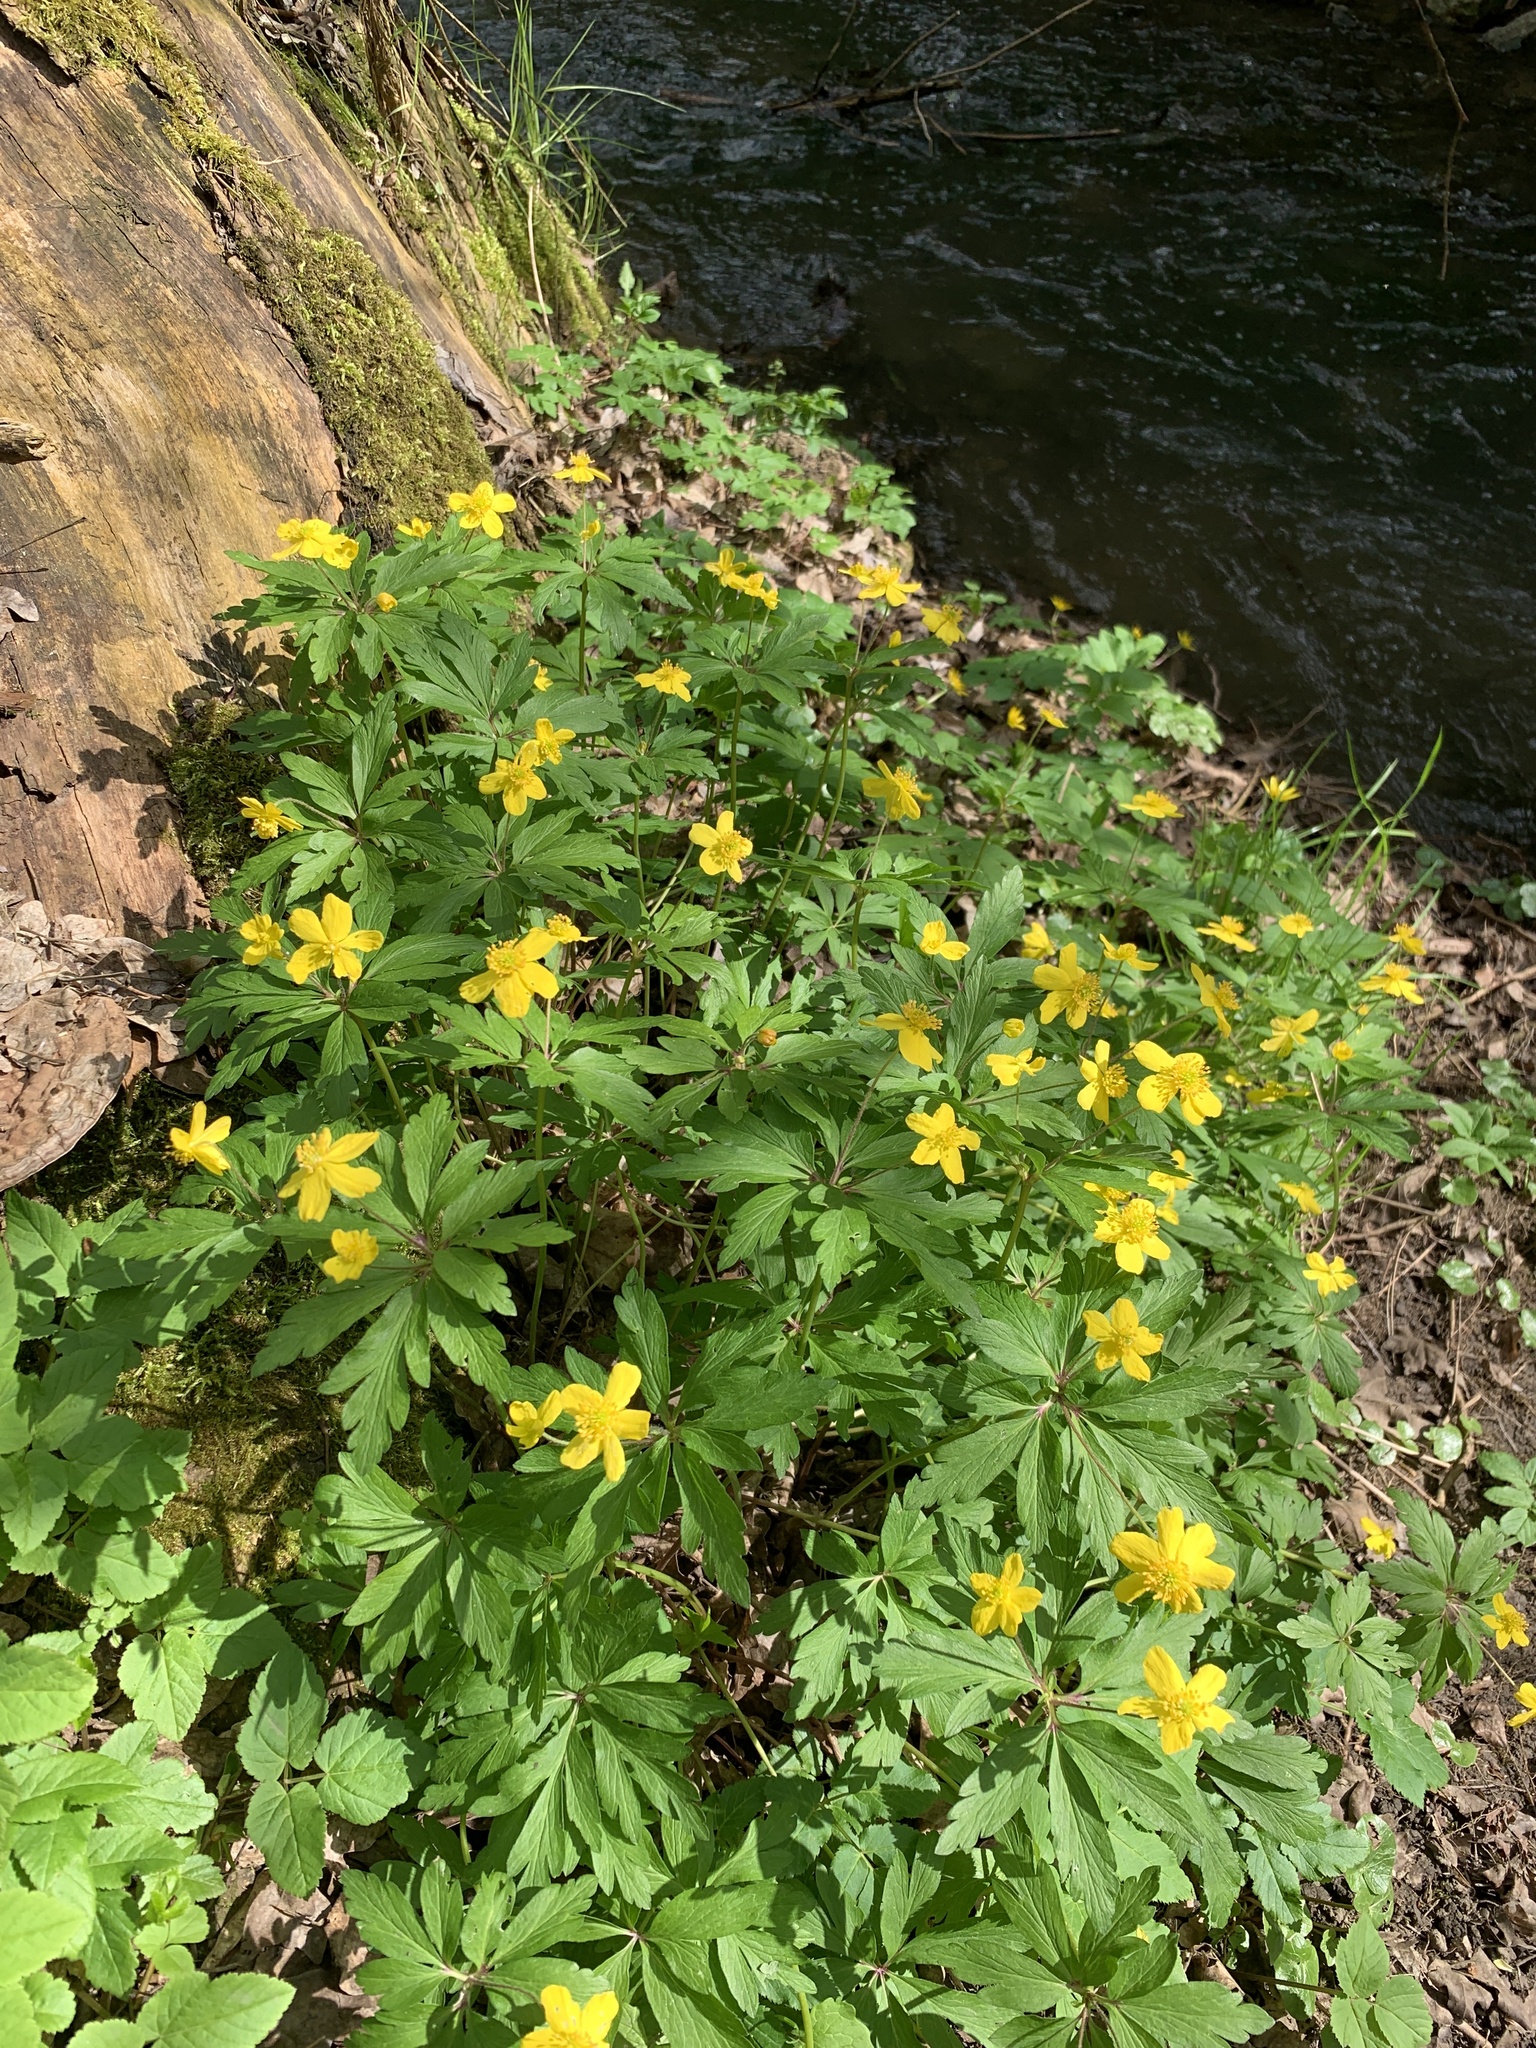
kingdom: Plantae
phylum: Tracheophyta
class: Magnoliopsida
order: Ranunculales
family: Ranunculaceae
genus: Anemone
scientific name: Anemone ranunculoides
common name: Yellow anemone
